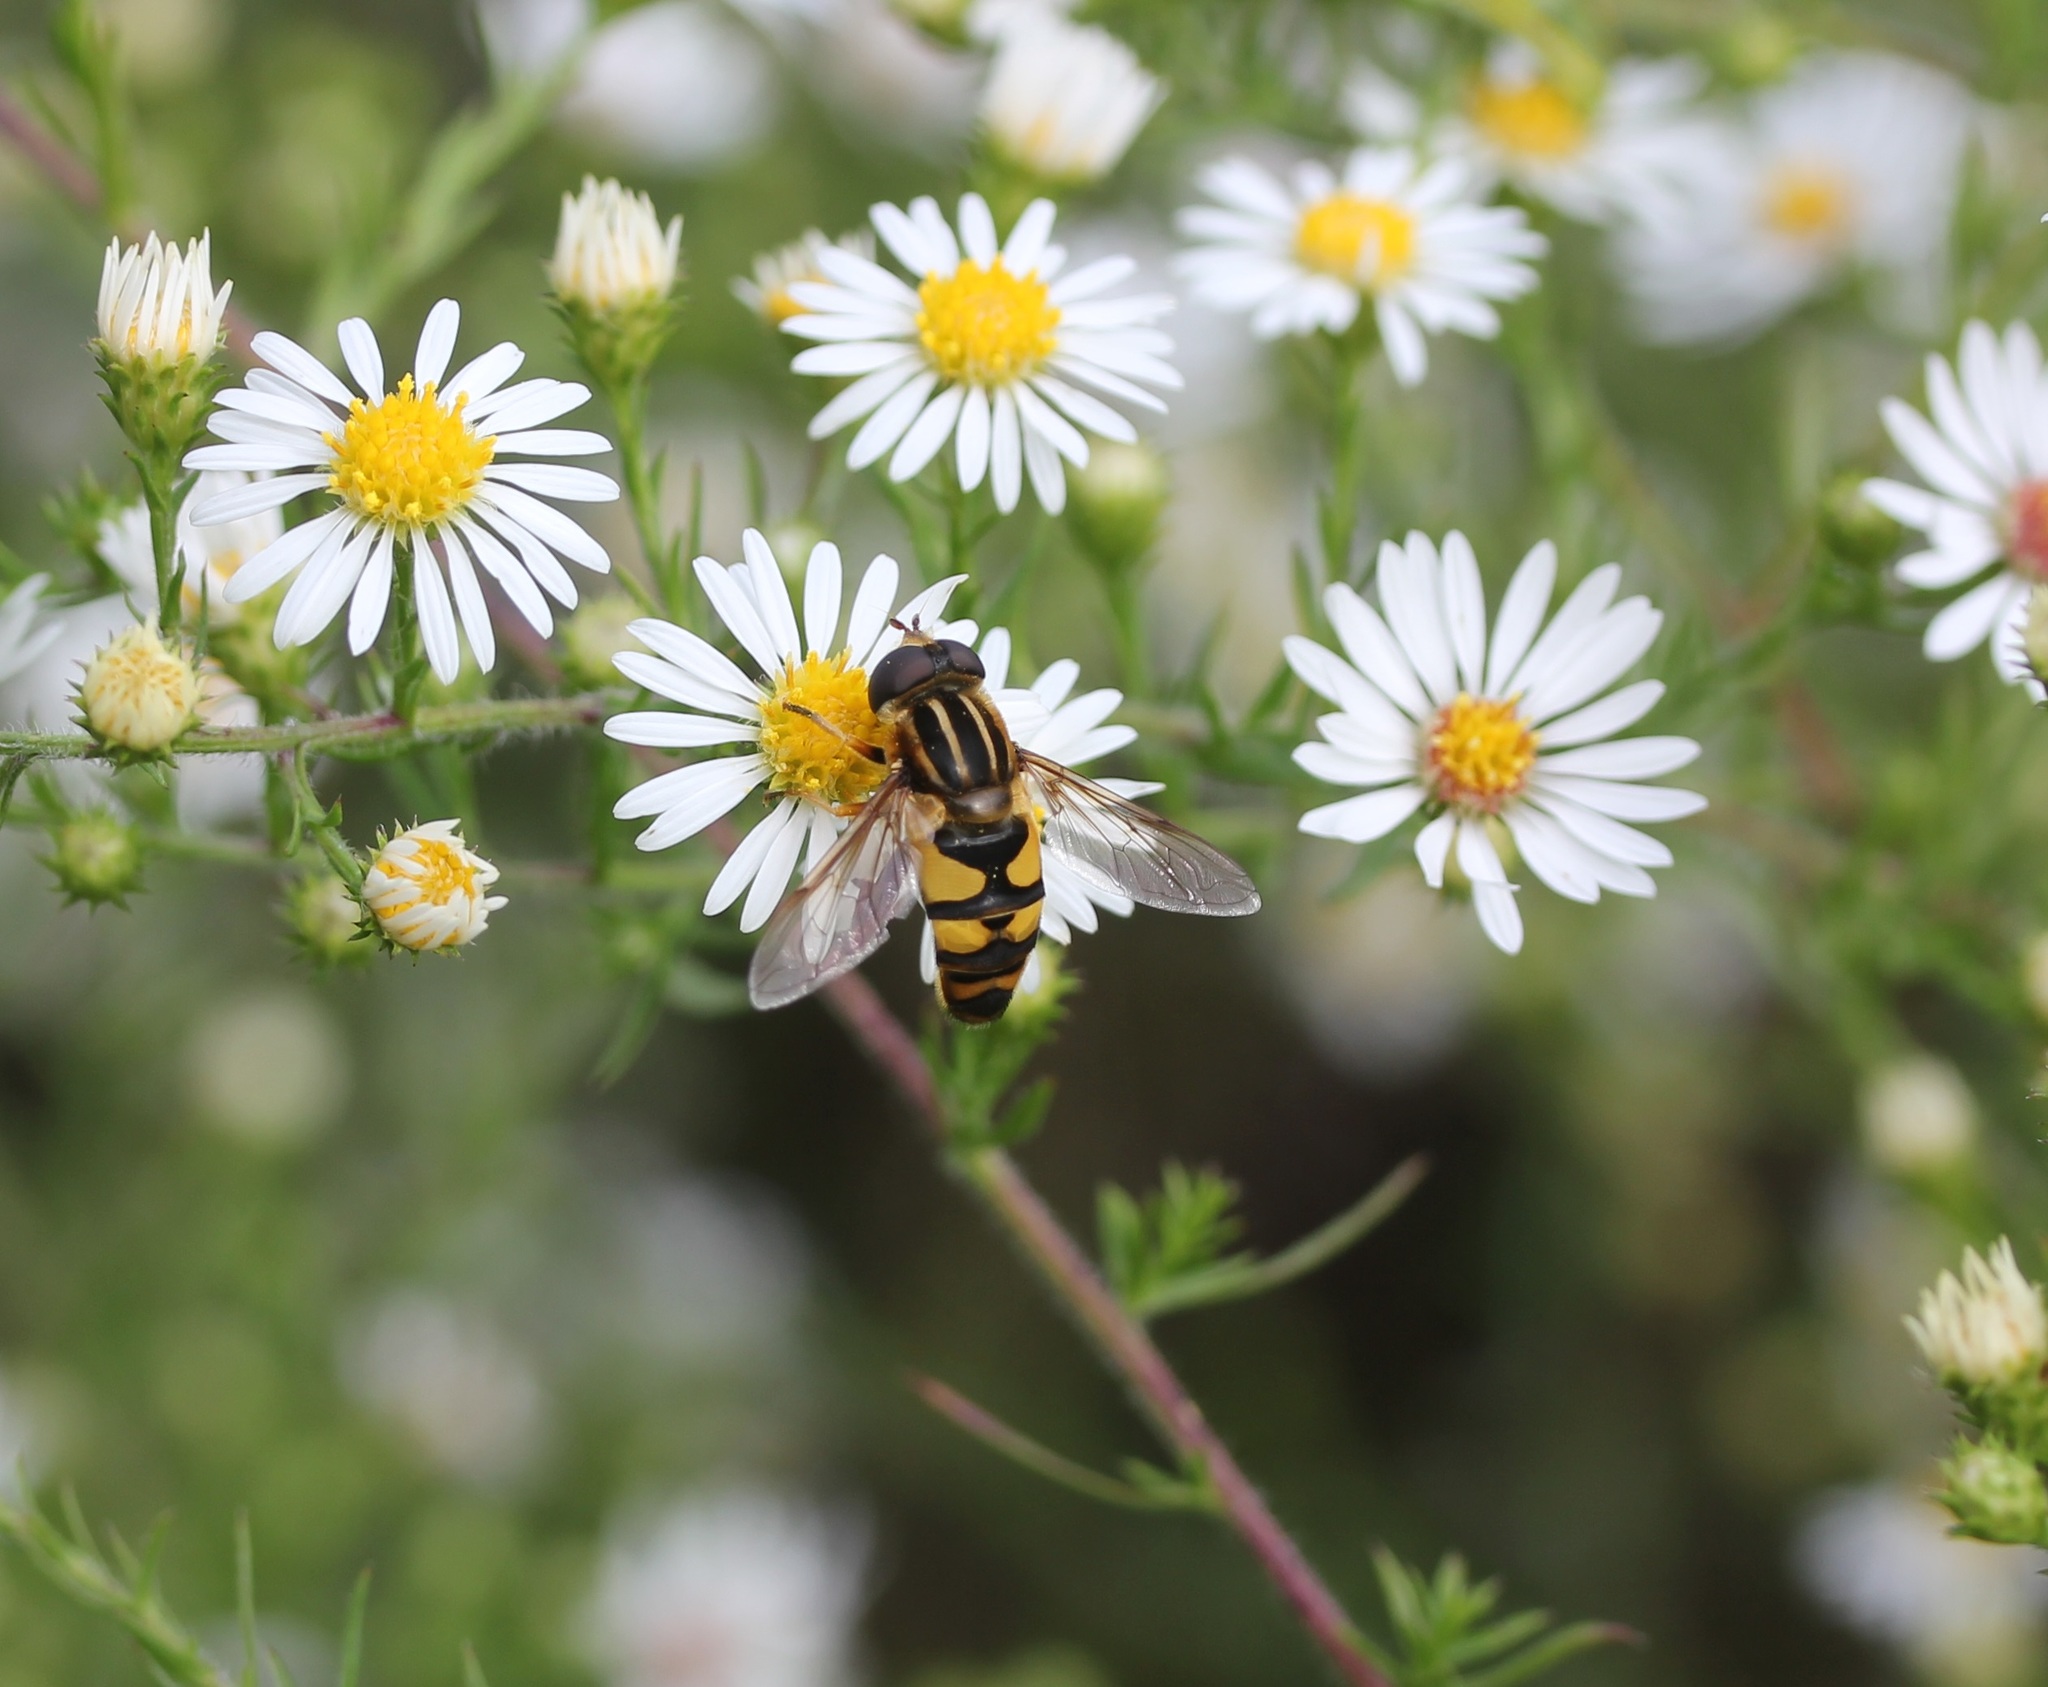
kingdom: Animalia
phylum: Arthropoda
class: Insecta
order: Diptera
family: Syrphidae
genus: Helophilus
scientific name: Helophilus fasciatus
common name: Narrow-headed marsh fly
